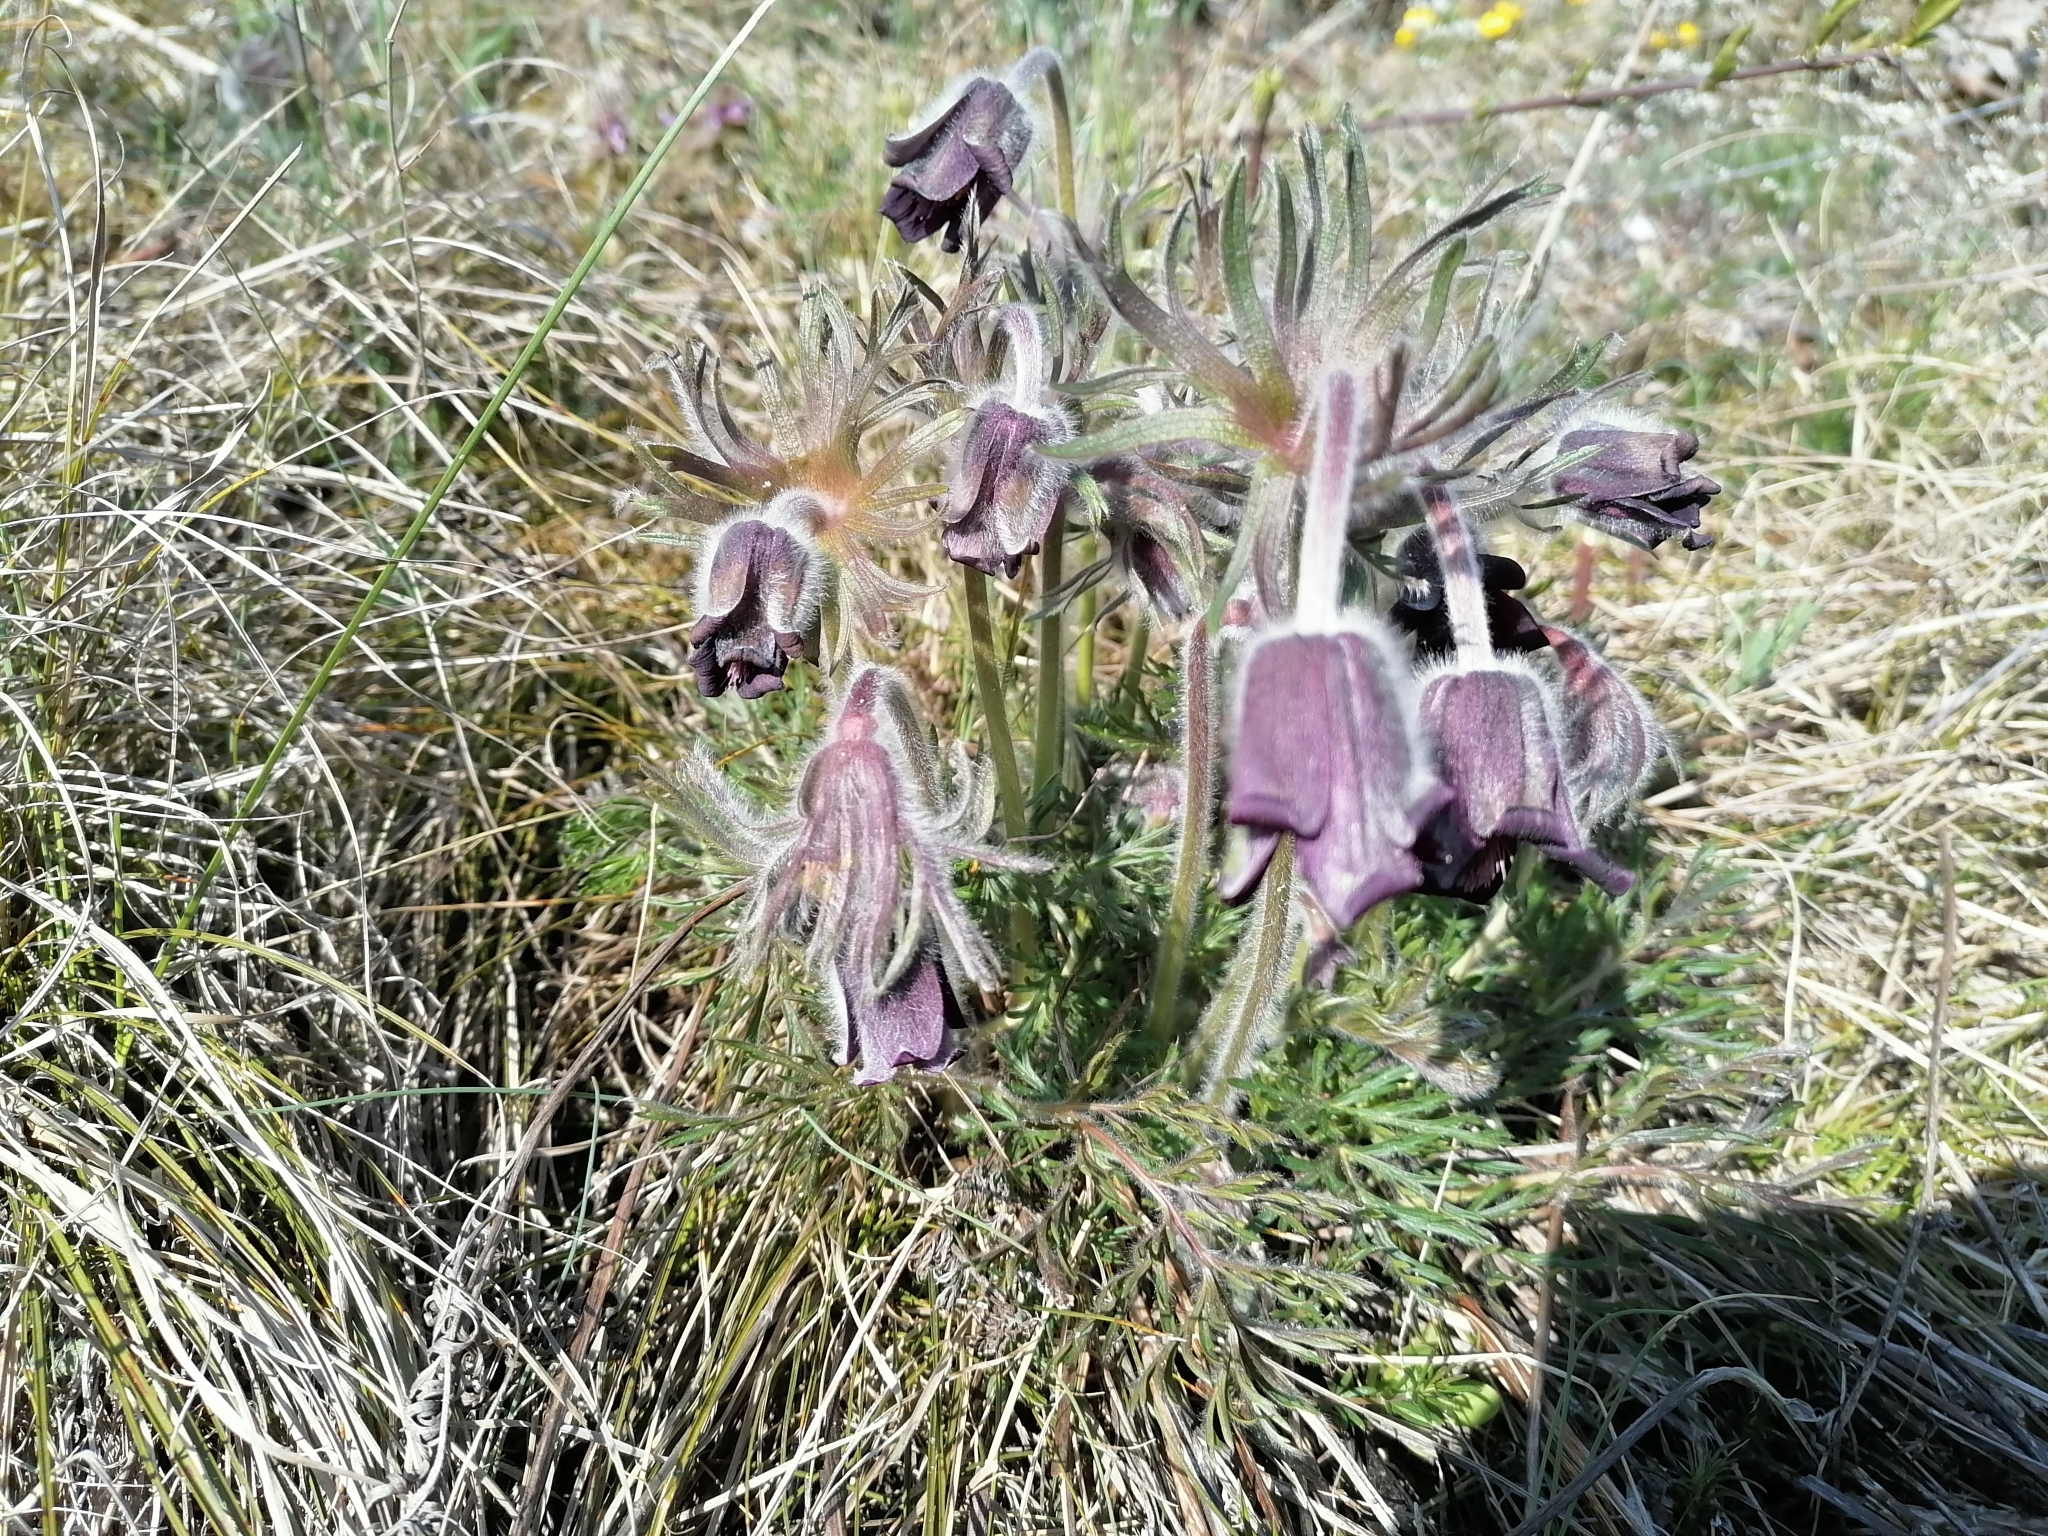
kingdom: Plantae
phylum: Tracheophyta
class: Magnoliopsida
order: Ranunculales
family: Ranunculaceae
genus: Pulsatilla
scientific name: Pulsatilla pratensis
